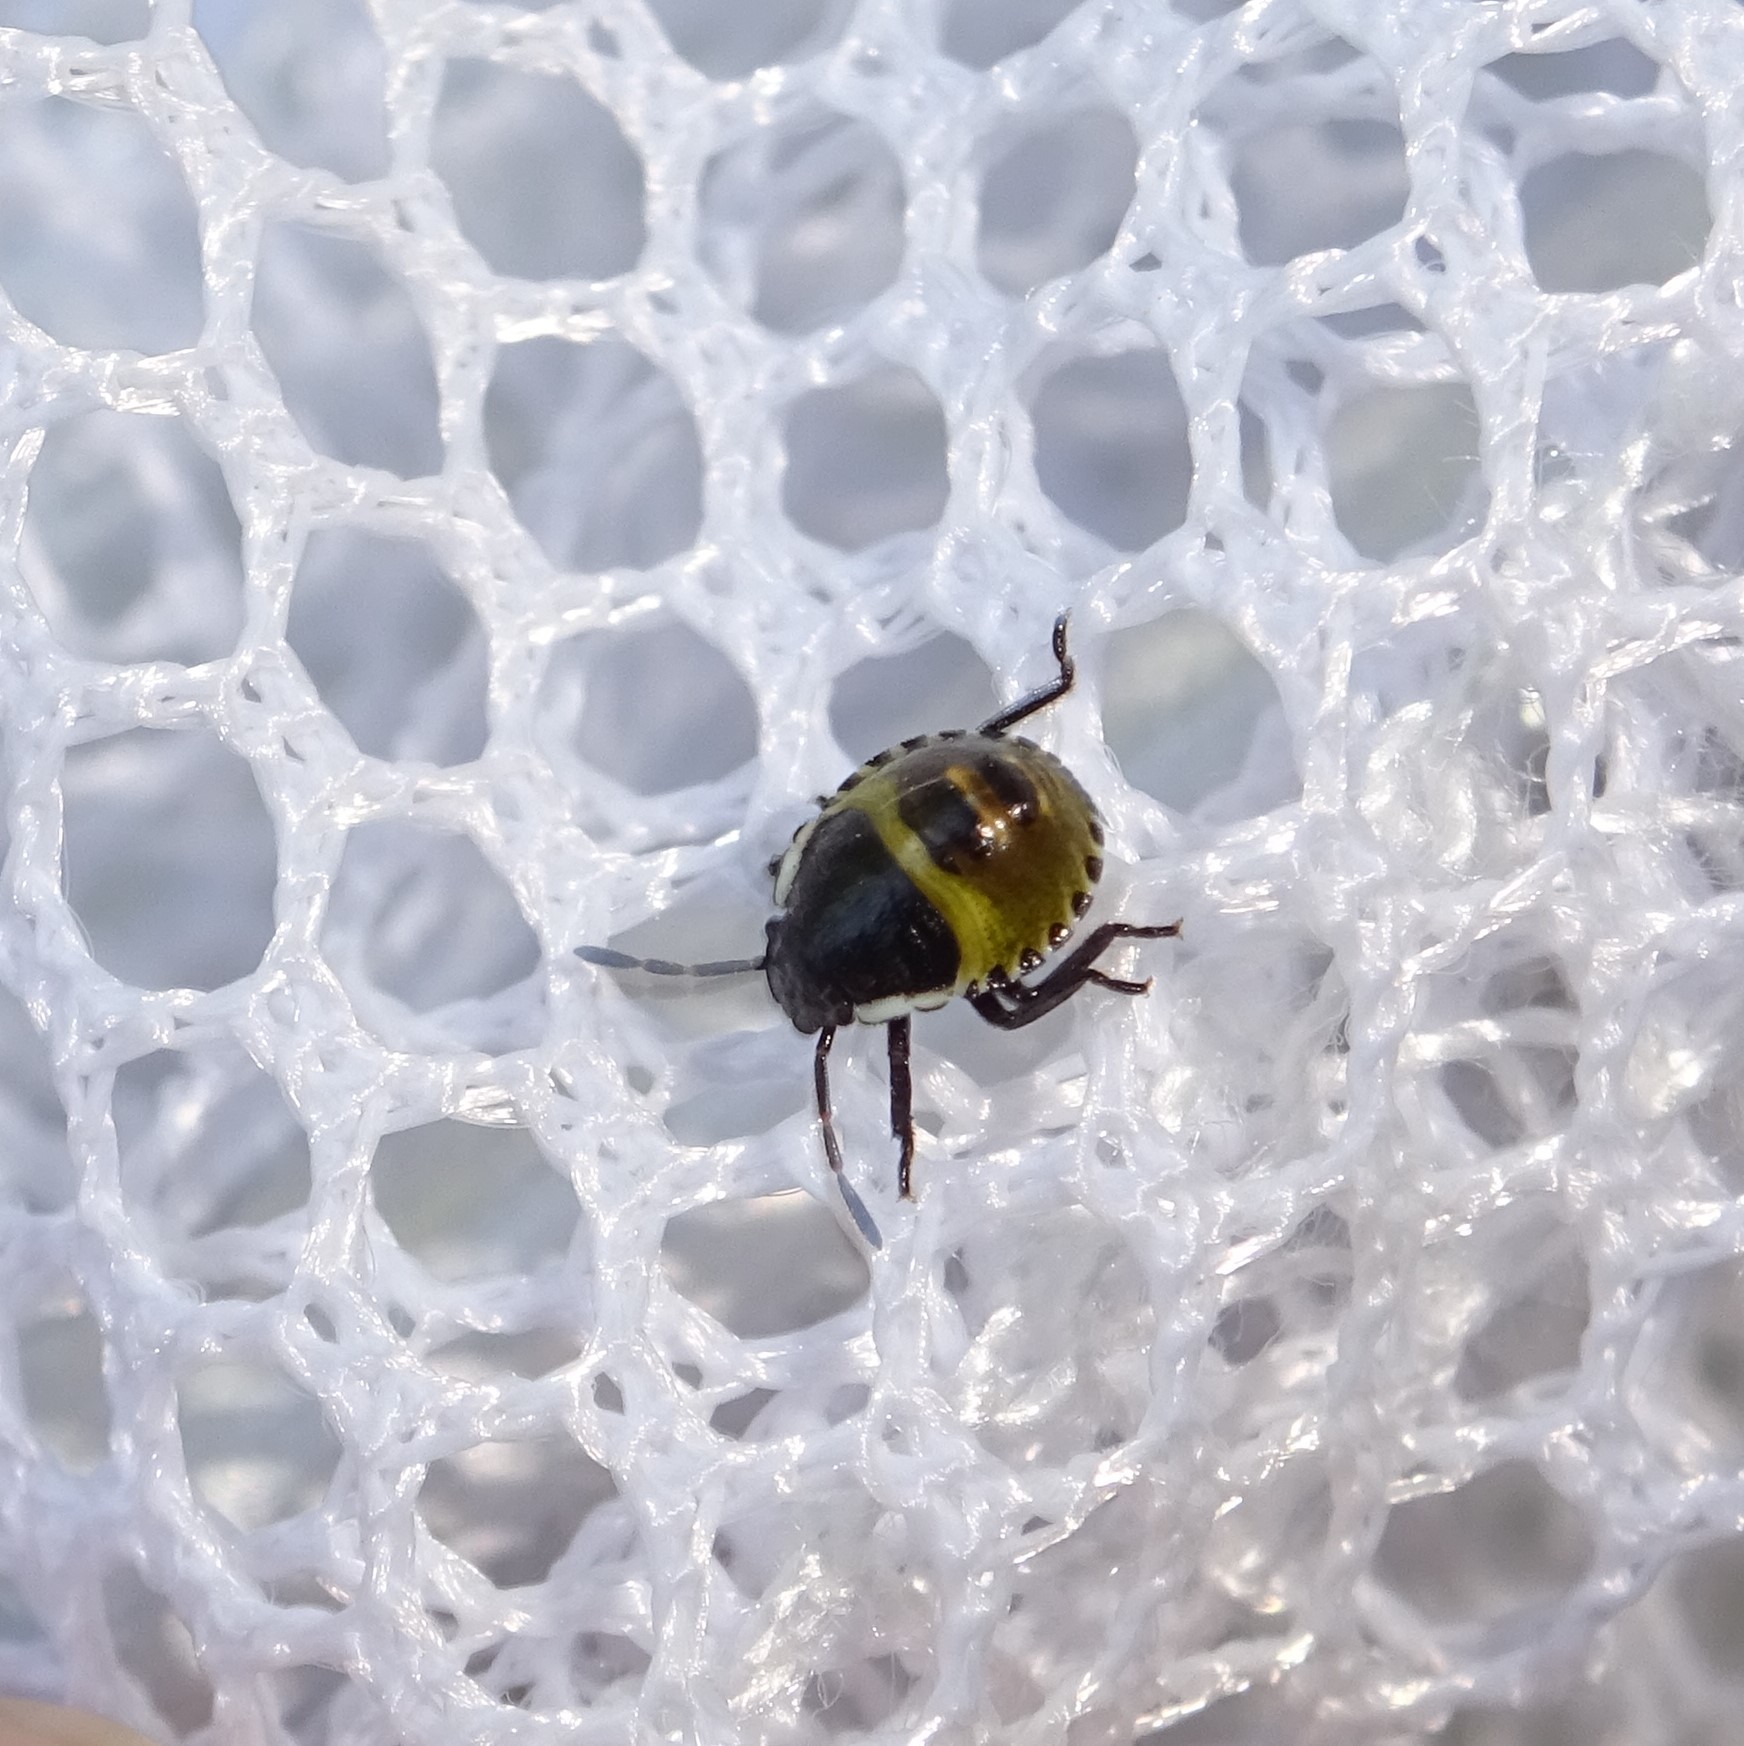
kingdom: Animalia
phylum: Arthropoda
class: Insecta
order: Hemiptera
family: Pentatomidae
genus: Palomena
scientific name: Palomena prasina
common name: Green shieldbug
